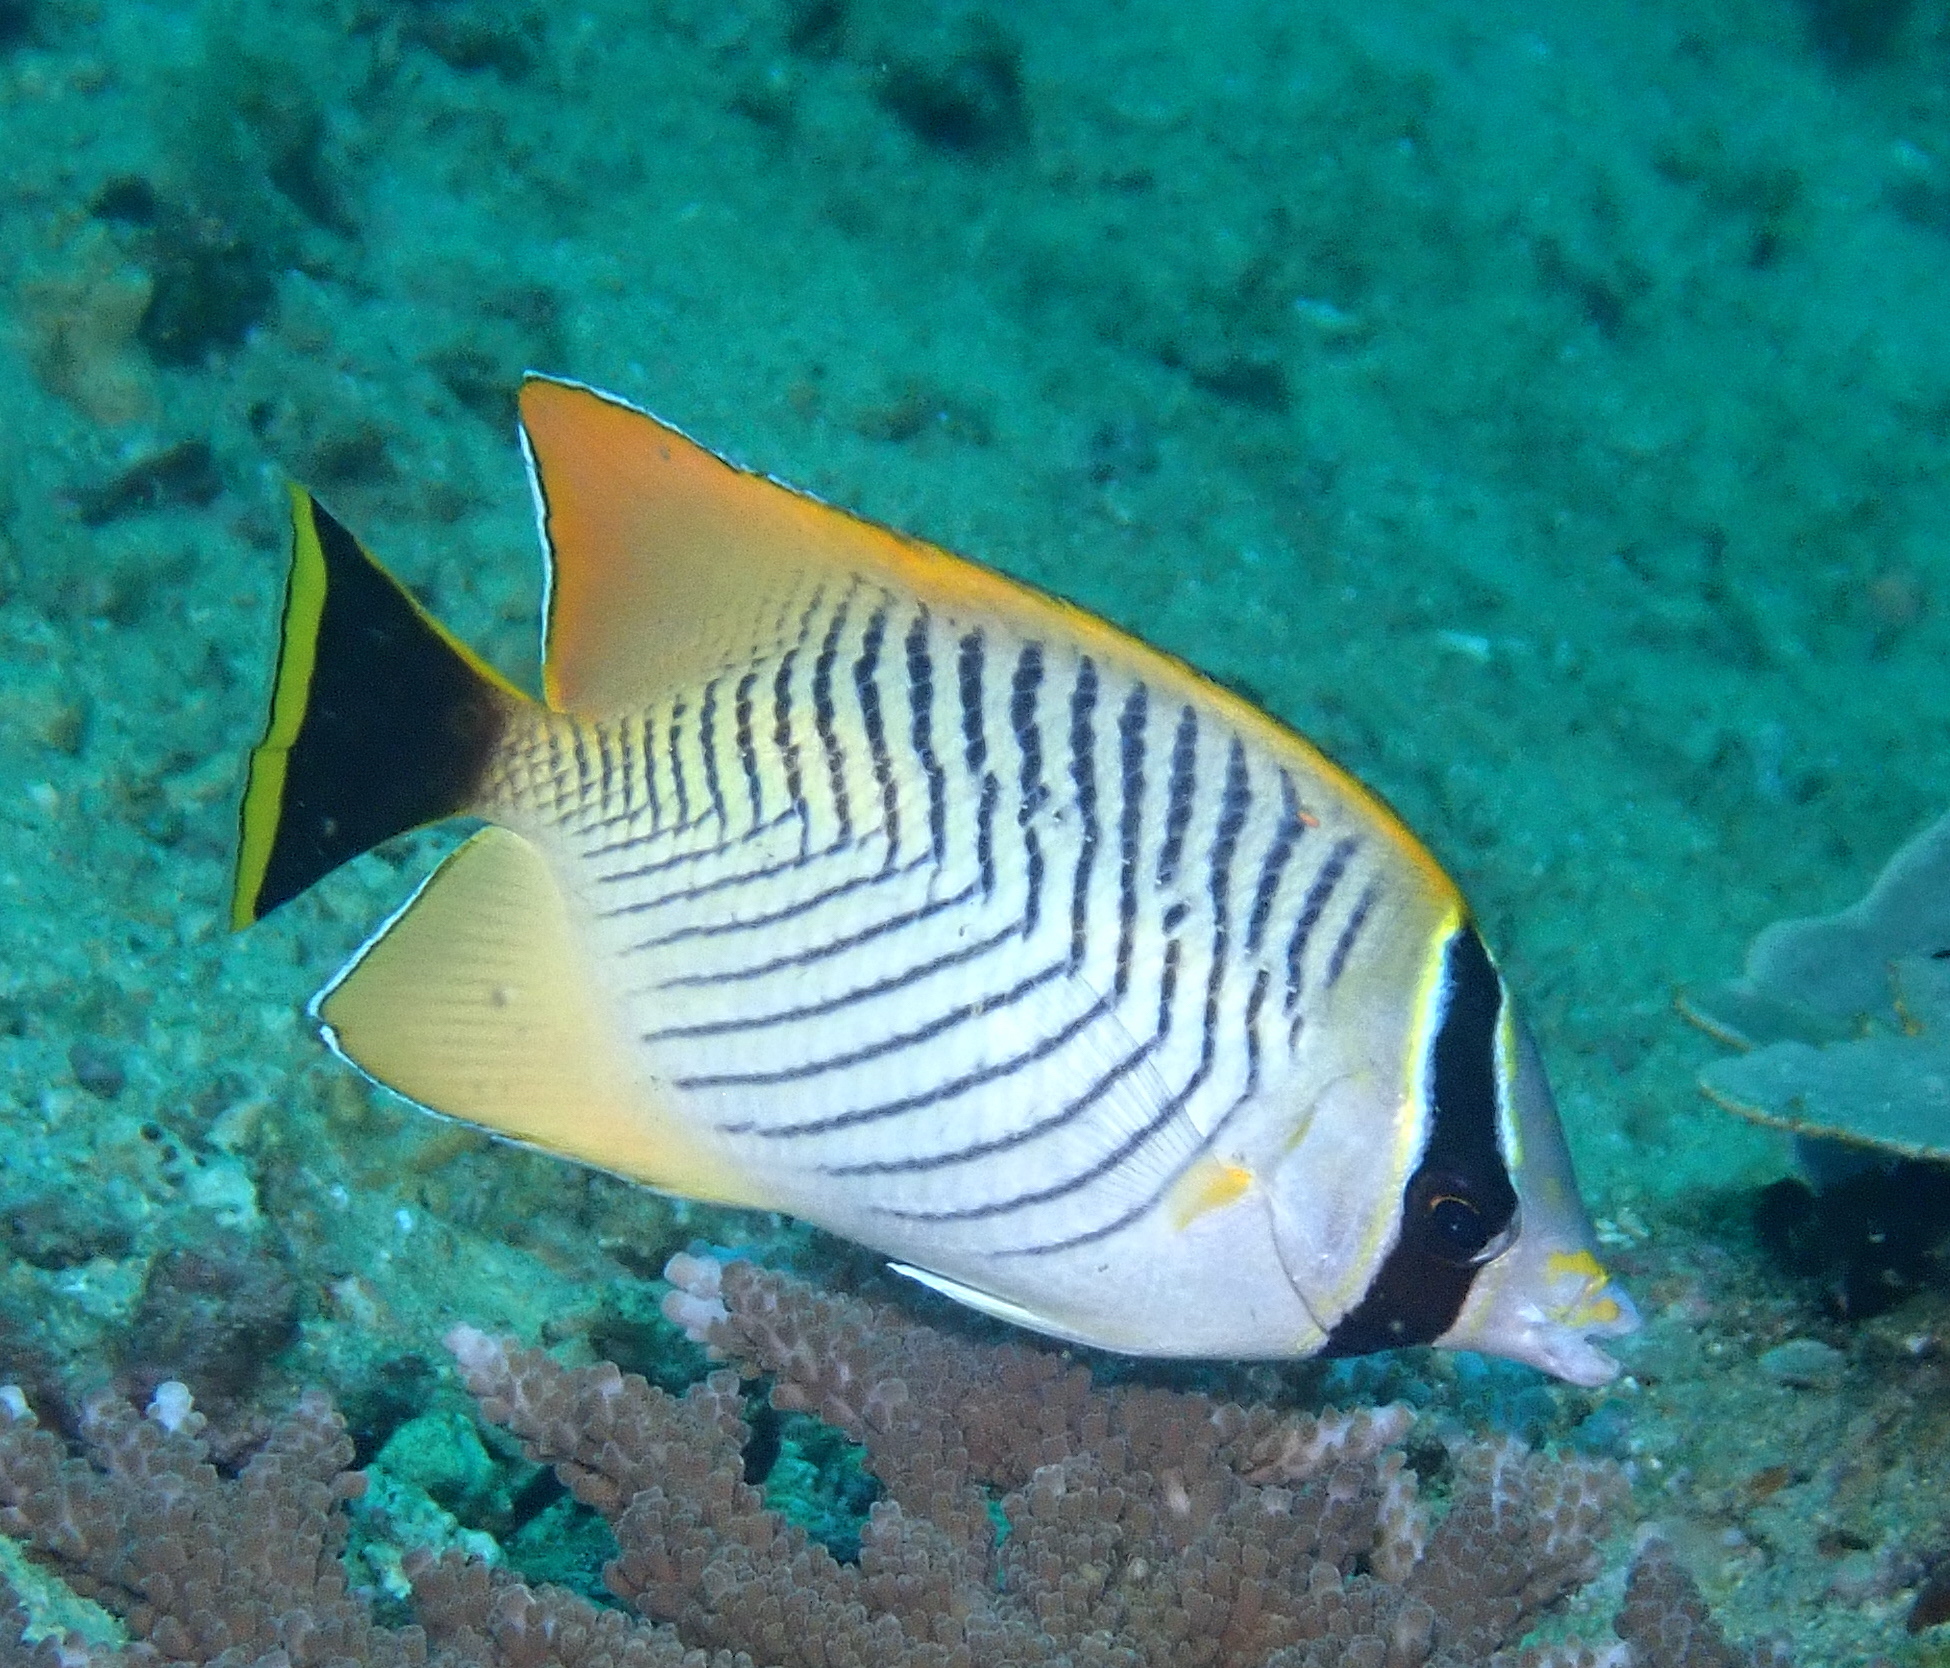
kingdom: Animalia
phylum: Chordata
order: Perciformes
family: Chaetodontidae
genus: Chaetodon
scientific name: Chaetodon trifascialis
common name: Chevroned butterflyfish
